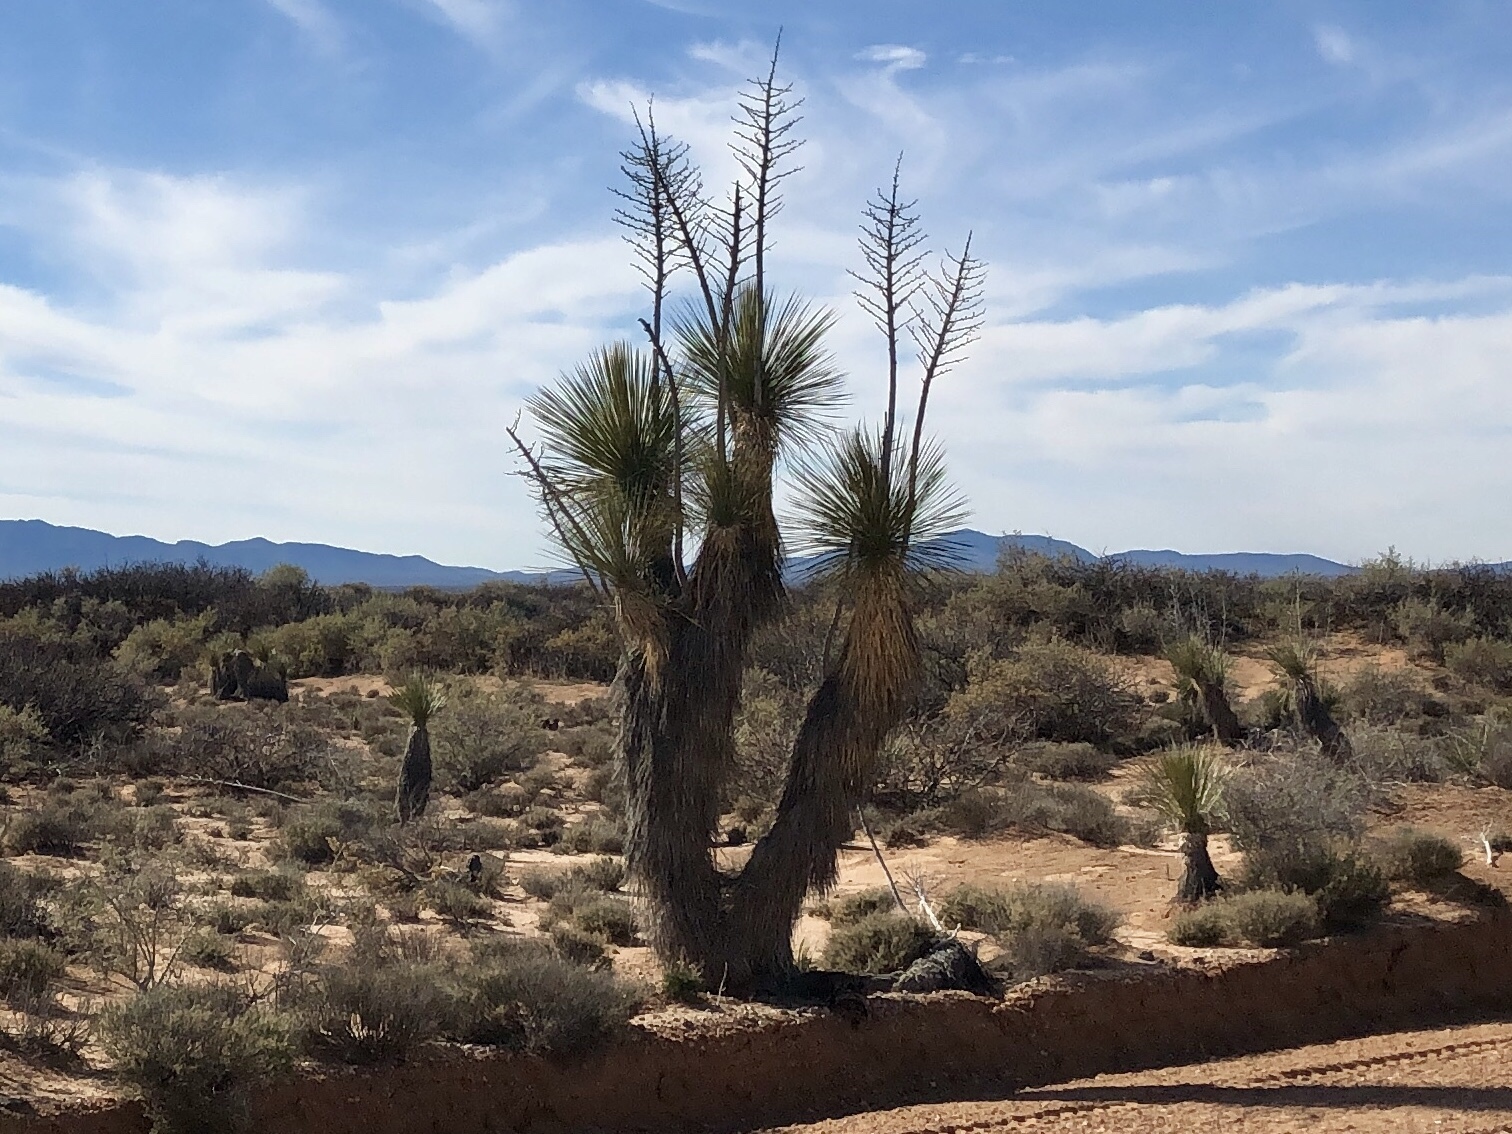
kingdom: Plantae
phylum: Tracheophyta
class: Liliopsida
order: Asparagales
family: Asparagaceae
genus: Yucca
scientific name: Yucca elata
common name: Palmella
